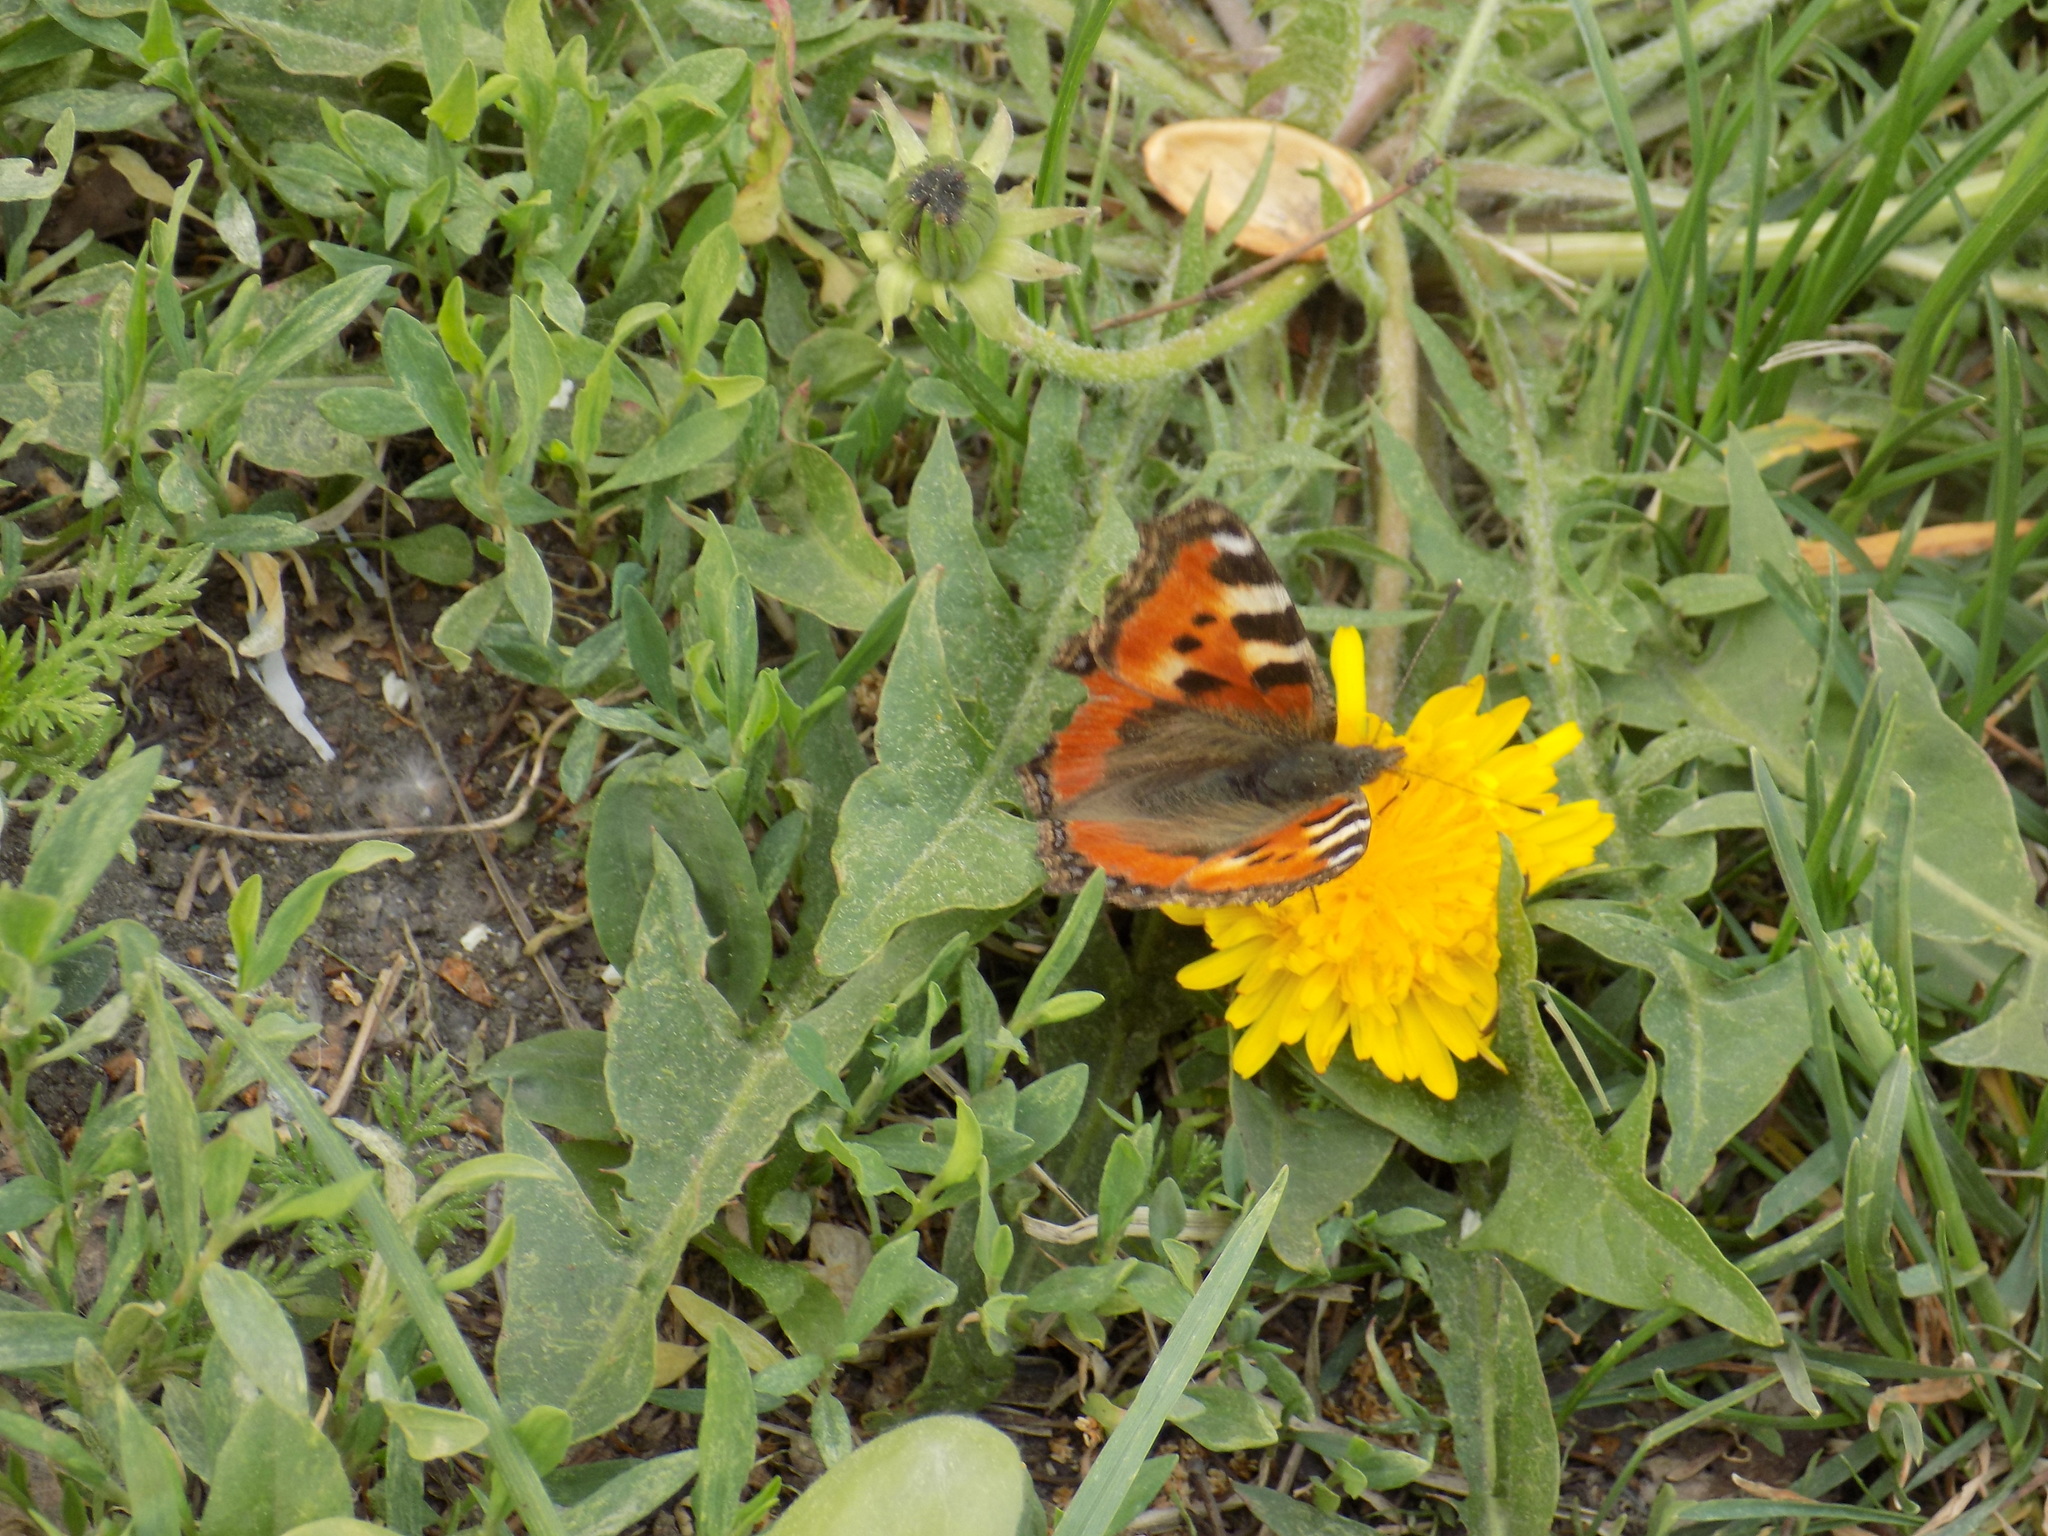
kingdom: Animalia
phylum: Arthropoda
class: Insecta
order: Lepidoptera
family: Nymphalidae
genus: Aglais
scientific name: Aglais urticae
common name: Small tortoiseshell
